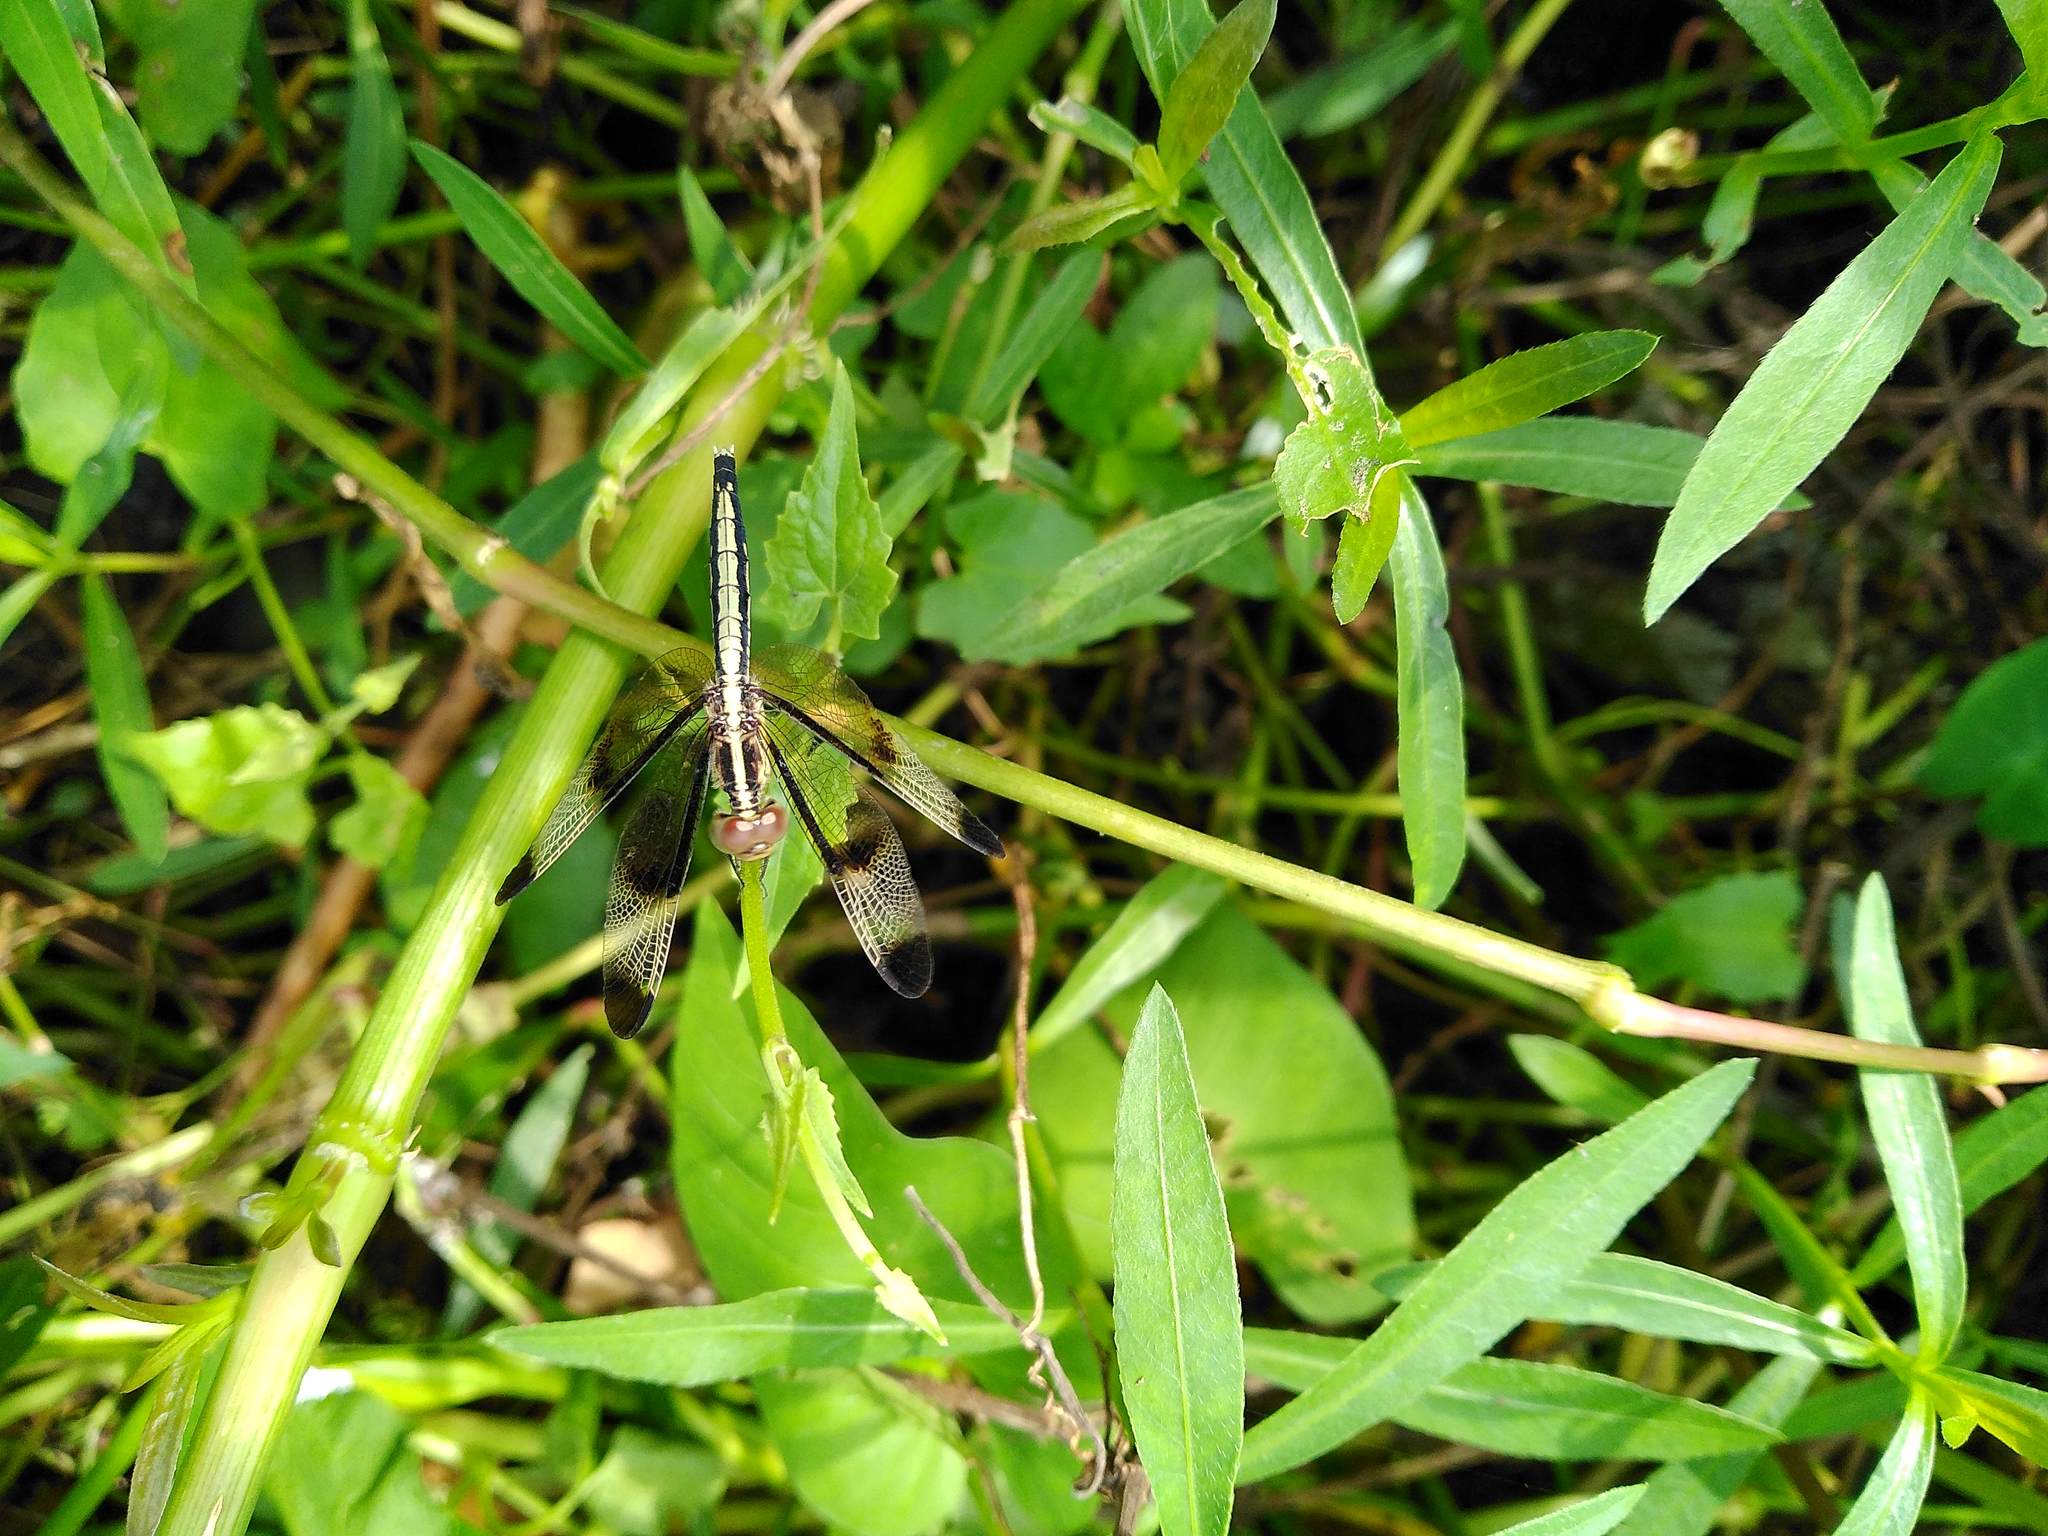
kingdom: Animalia
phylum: Arthropoda
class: Insecta
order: Odonata
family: Libellulidae
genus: Neurothemis
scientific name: Neurothemis tullia
